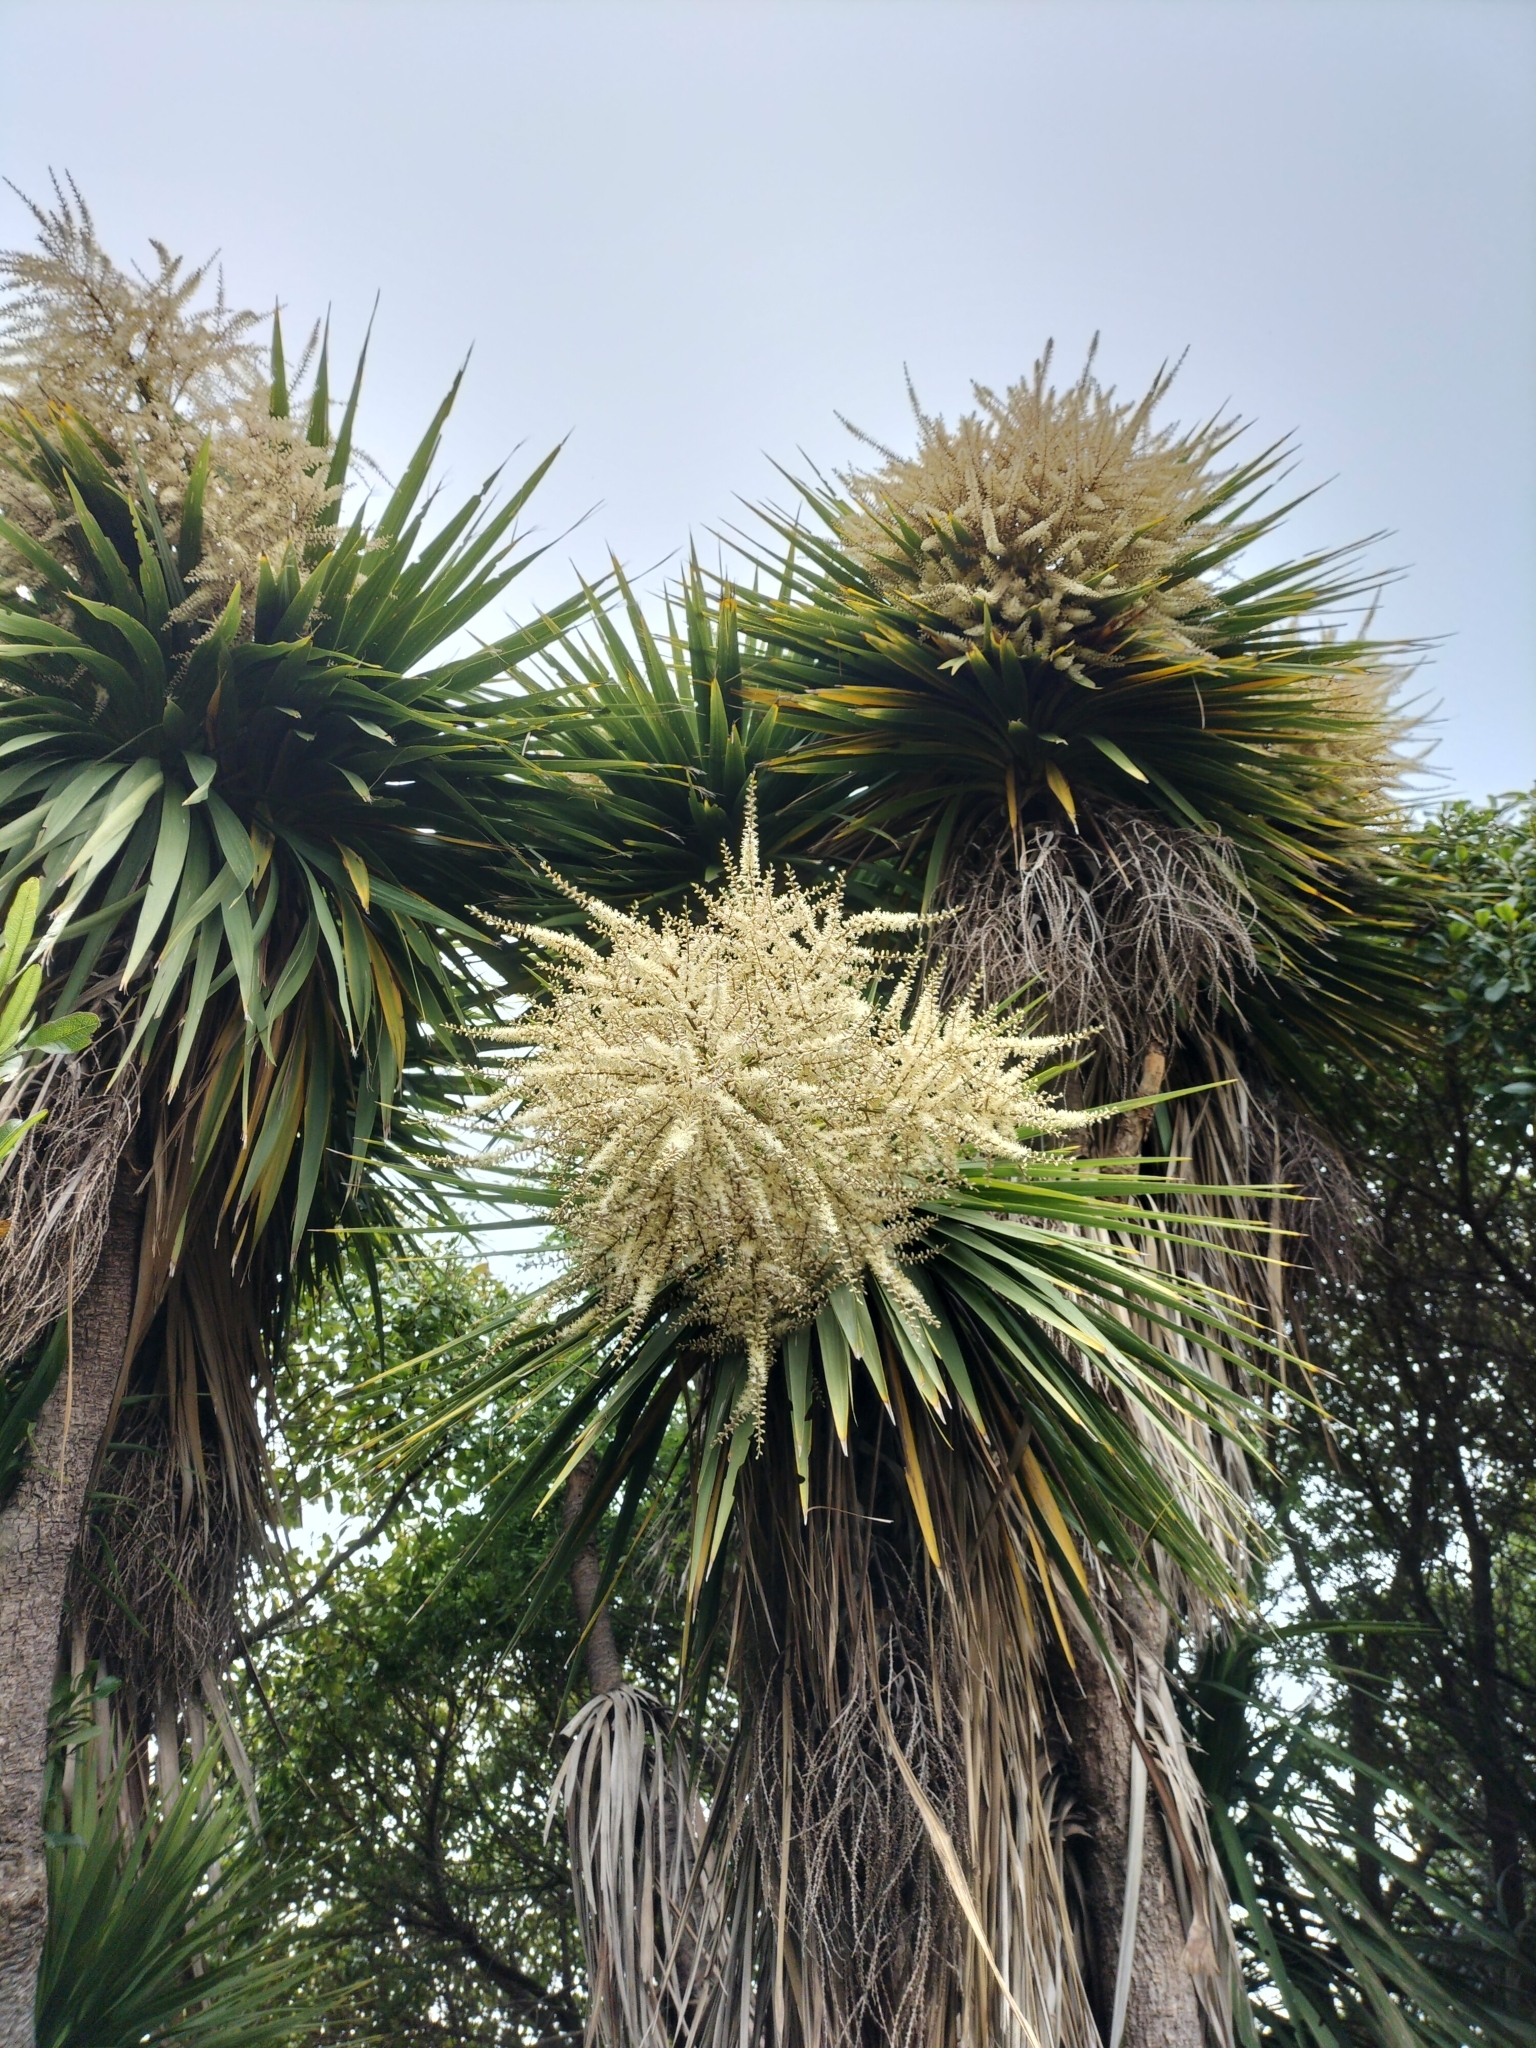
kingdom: Plantae
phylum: Tracheophyta
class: Liliopsida
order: Asparagales
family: Asparagaceae
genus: Cordyline
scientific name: Cordyline australis
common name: Cabbage-palm
